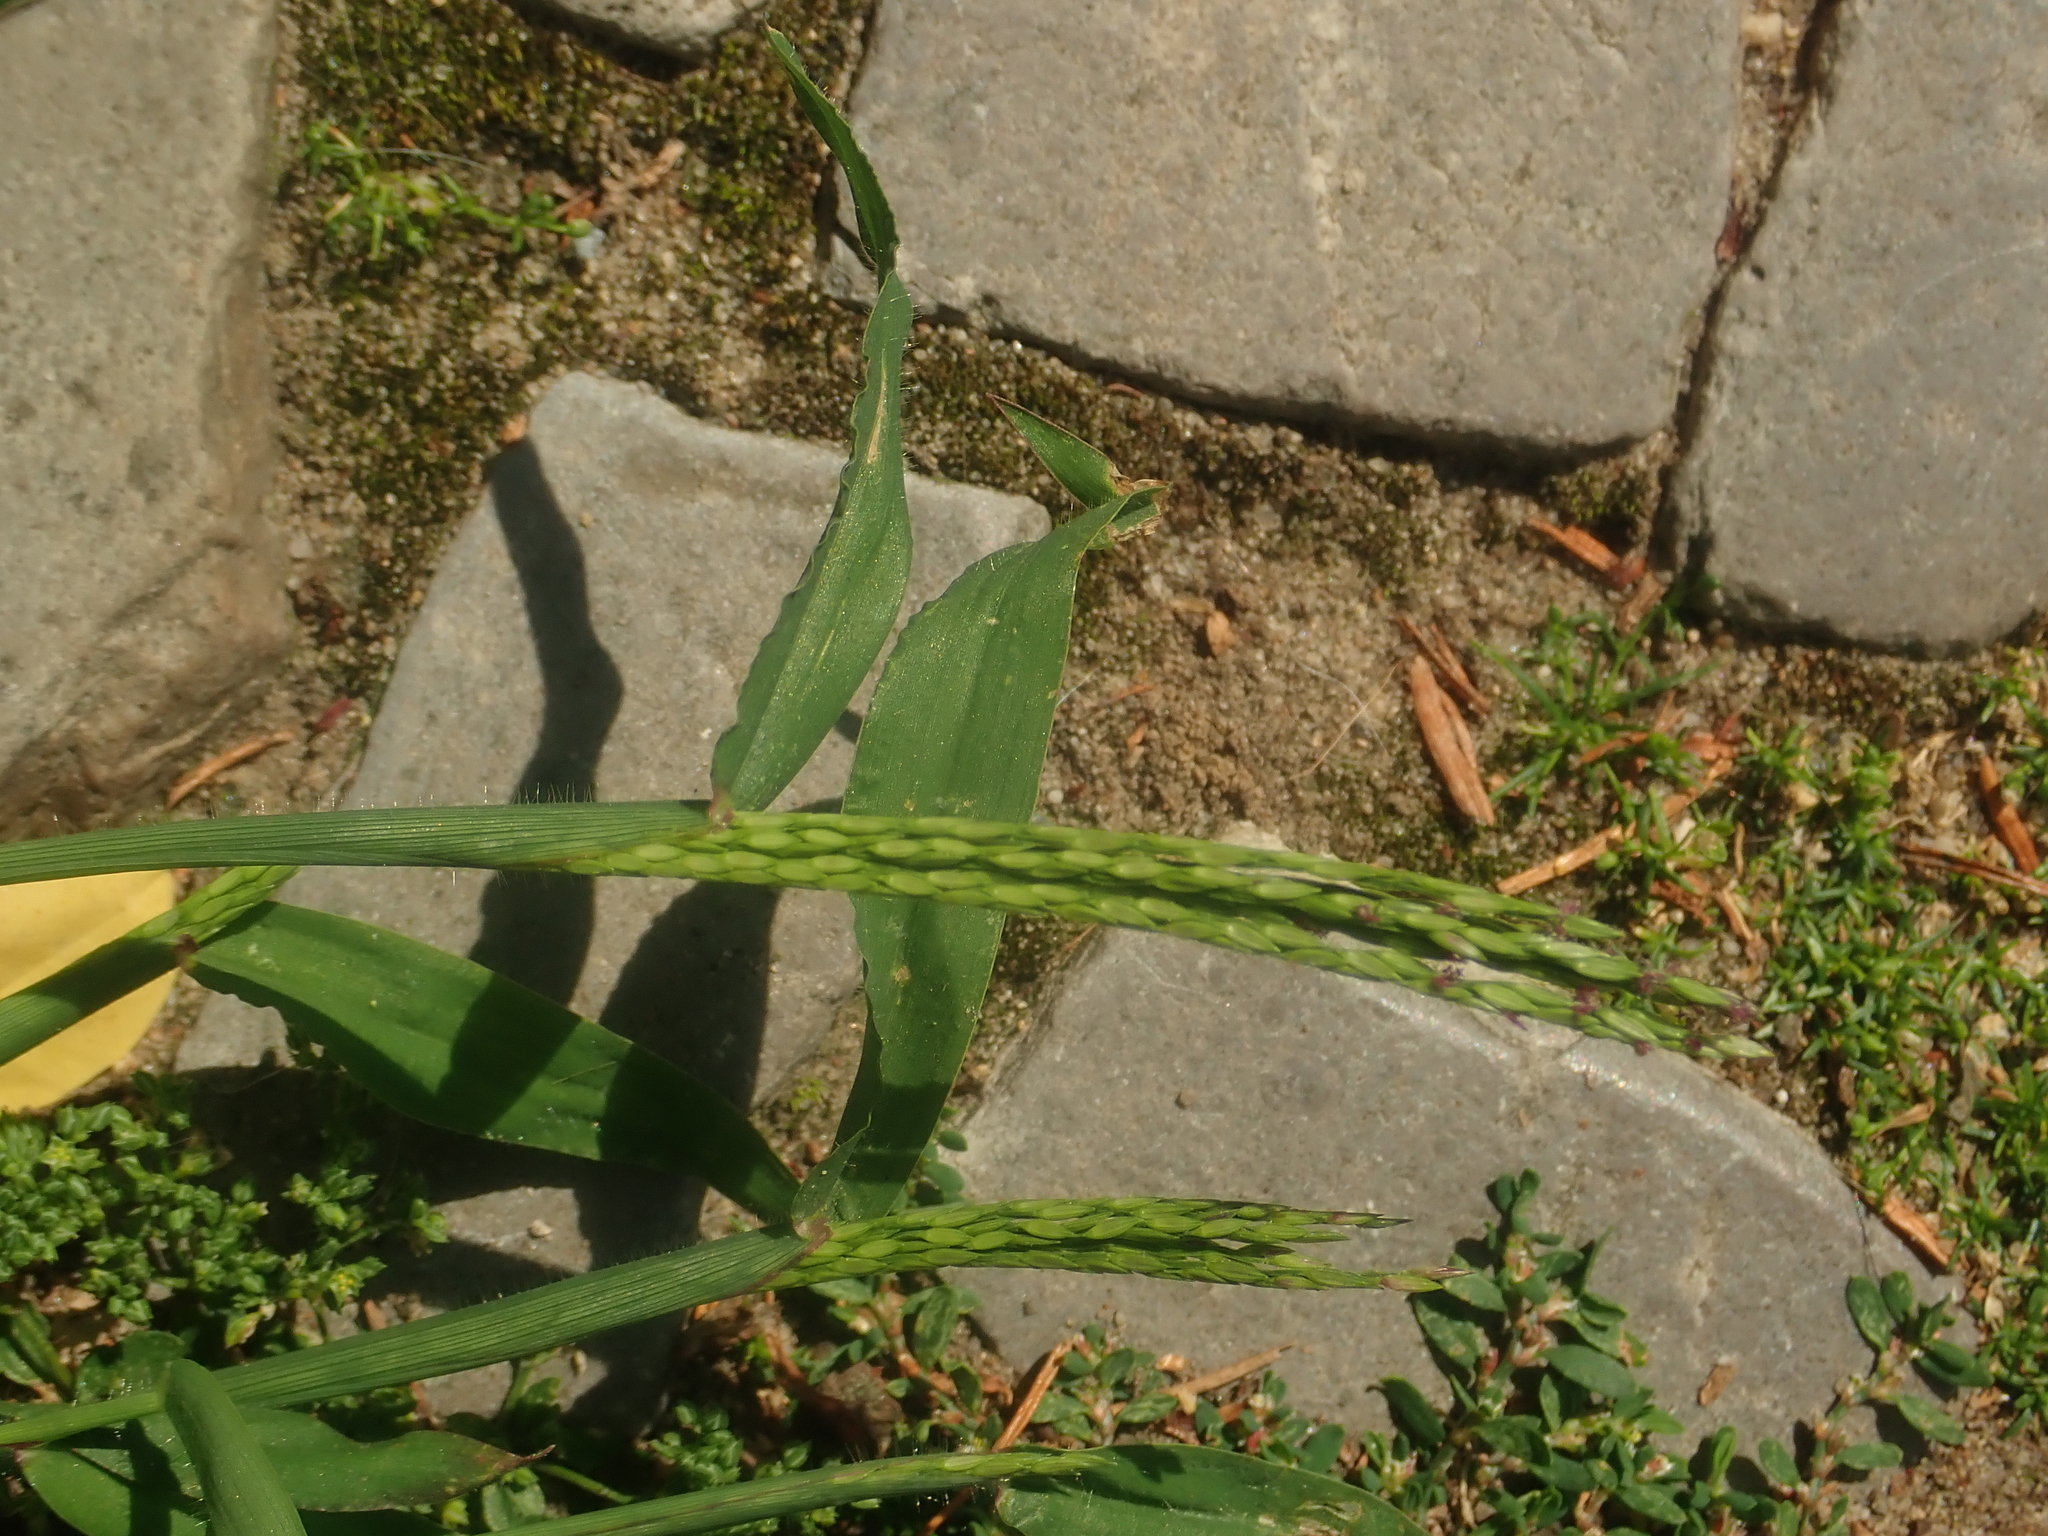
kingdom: Plantae
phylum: Tracheophyta
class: Liliopsida
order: Poales
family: Poaceae
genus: Digitaria
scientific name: Digitaria sanguinalis
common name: Hairy crabgrass
